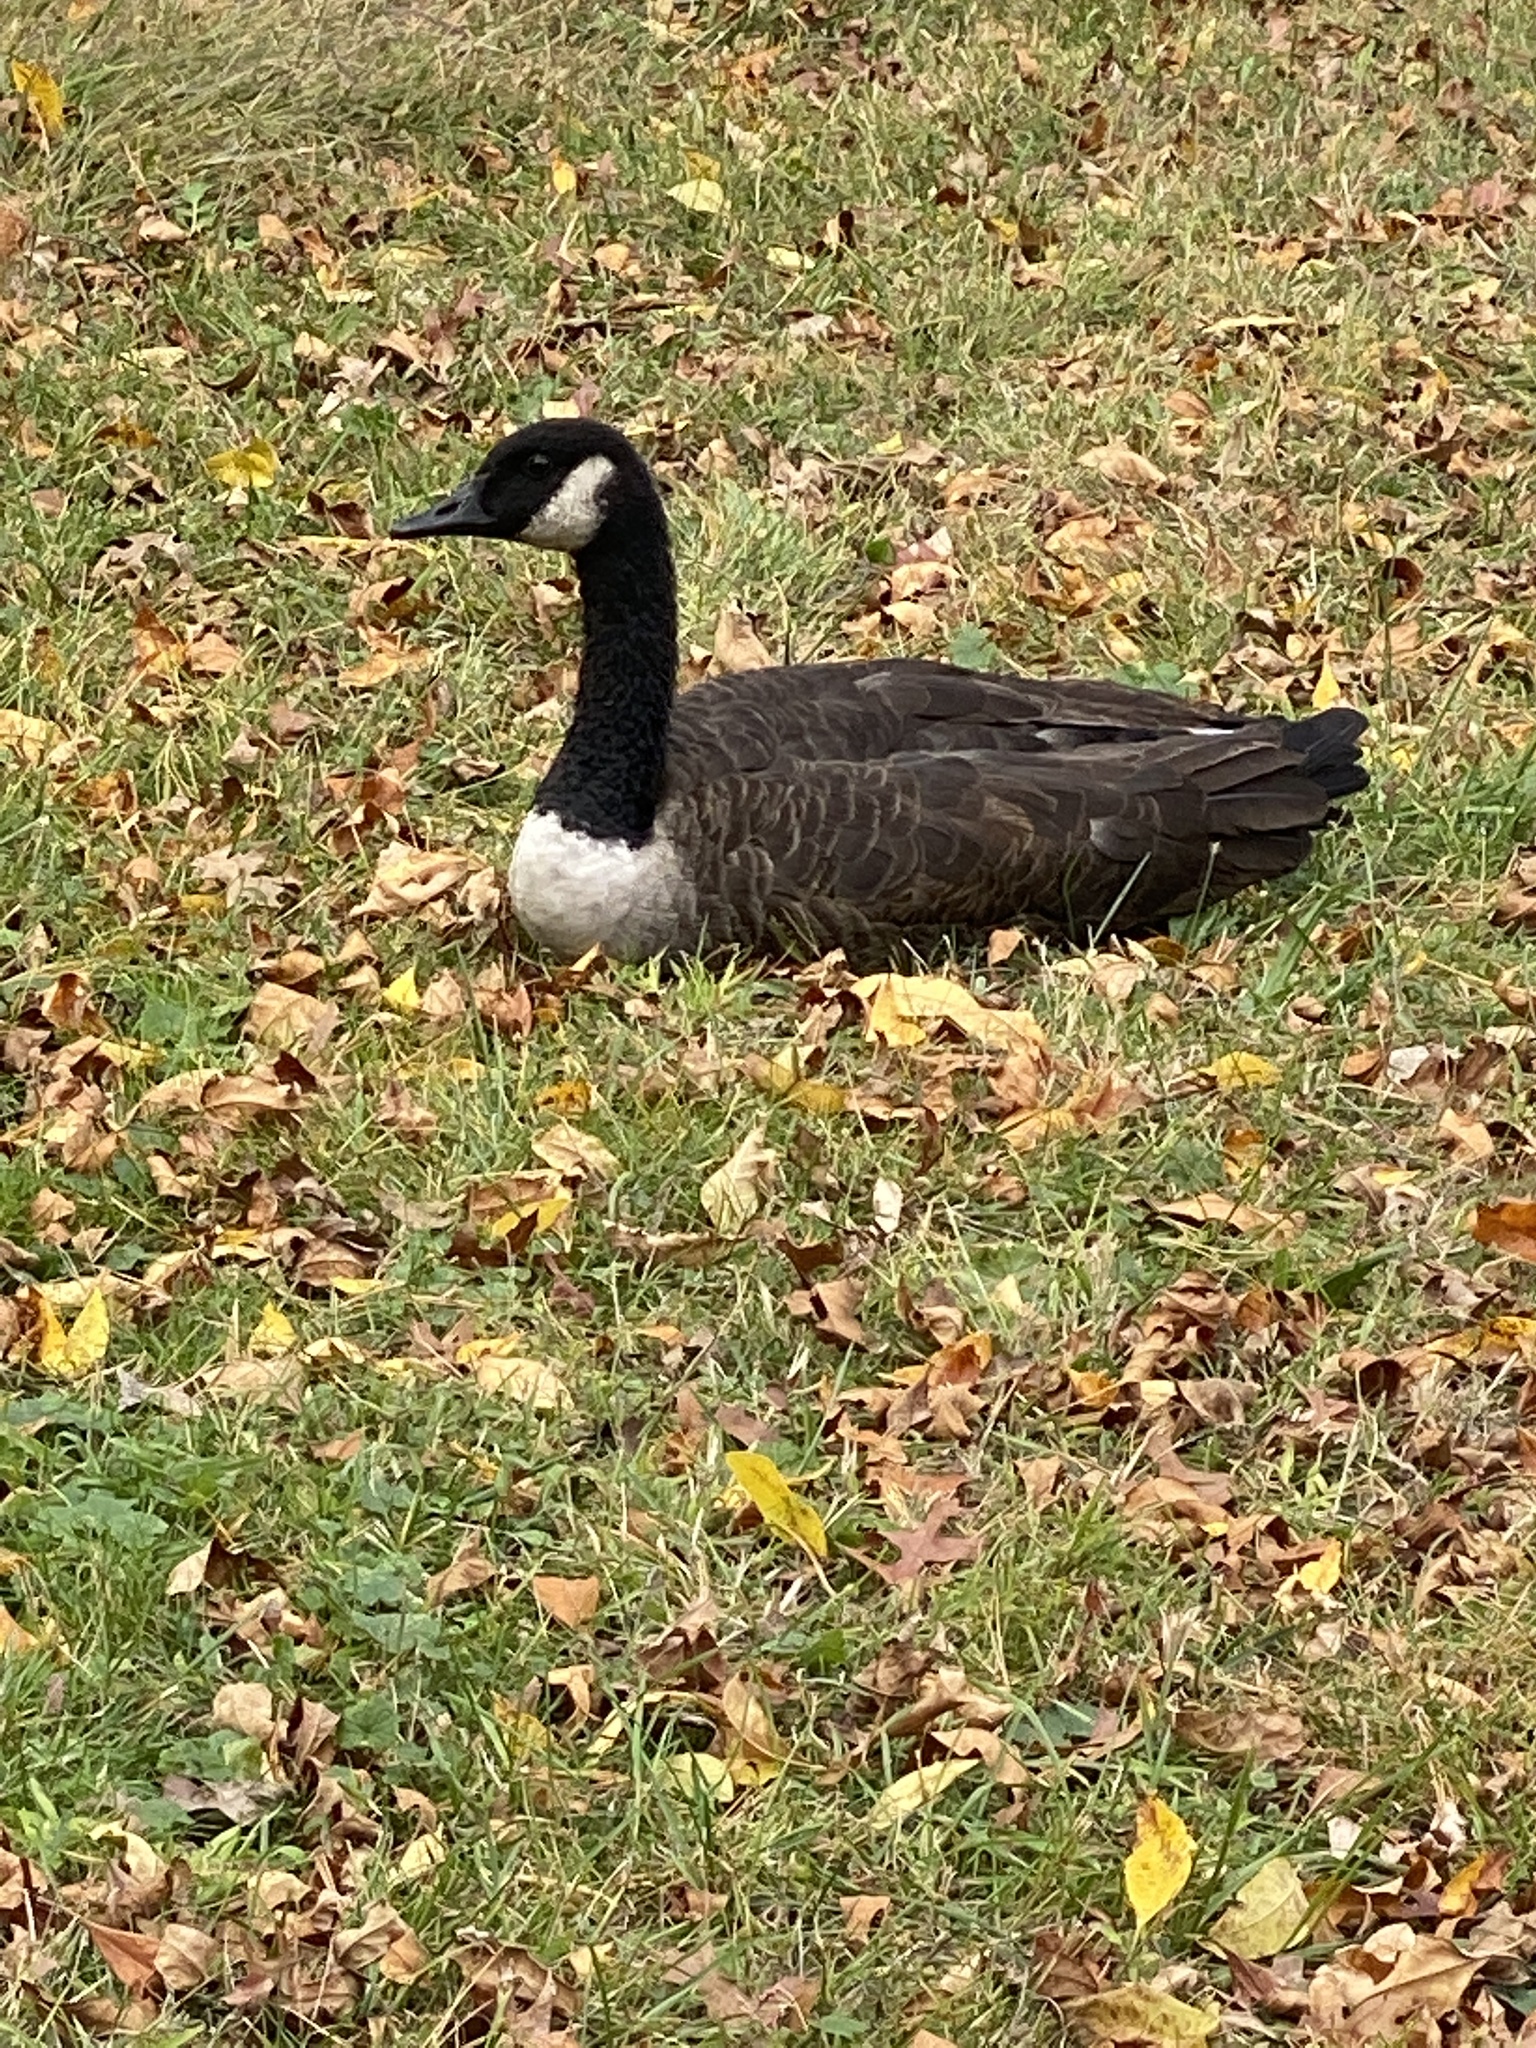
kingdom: Animalia
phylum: Chordata
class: Aves
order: Anseriformes
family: Anatidae
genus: Branta
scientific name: Branta canadensis
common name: Canada goose
